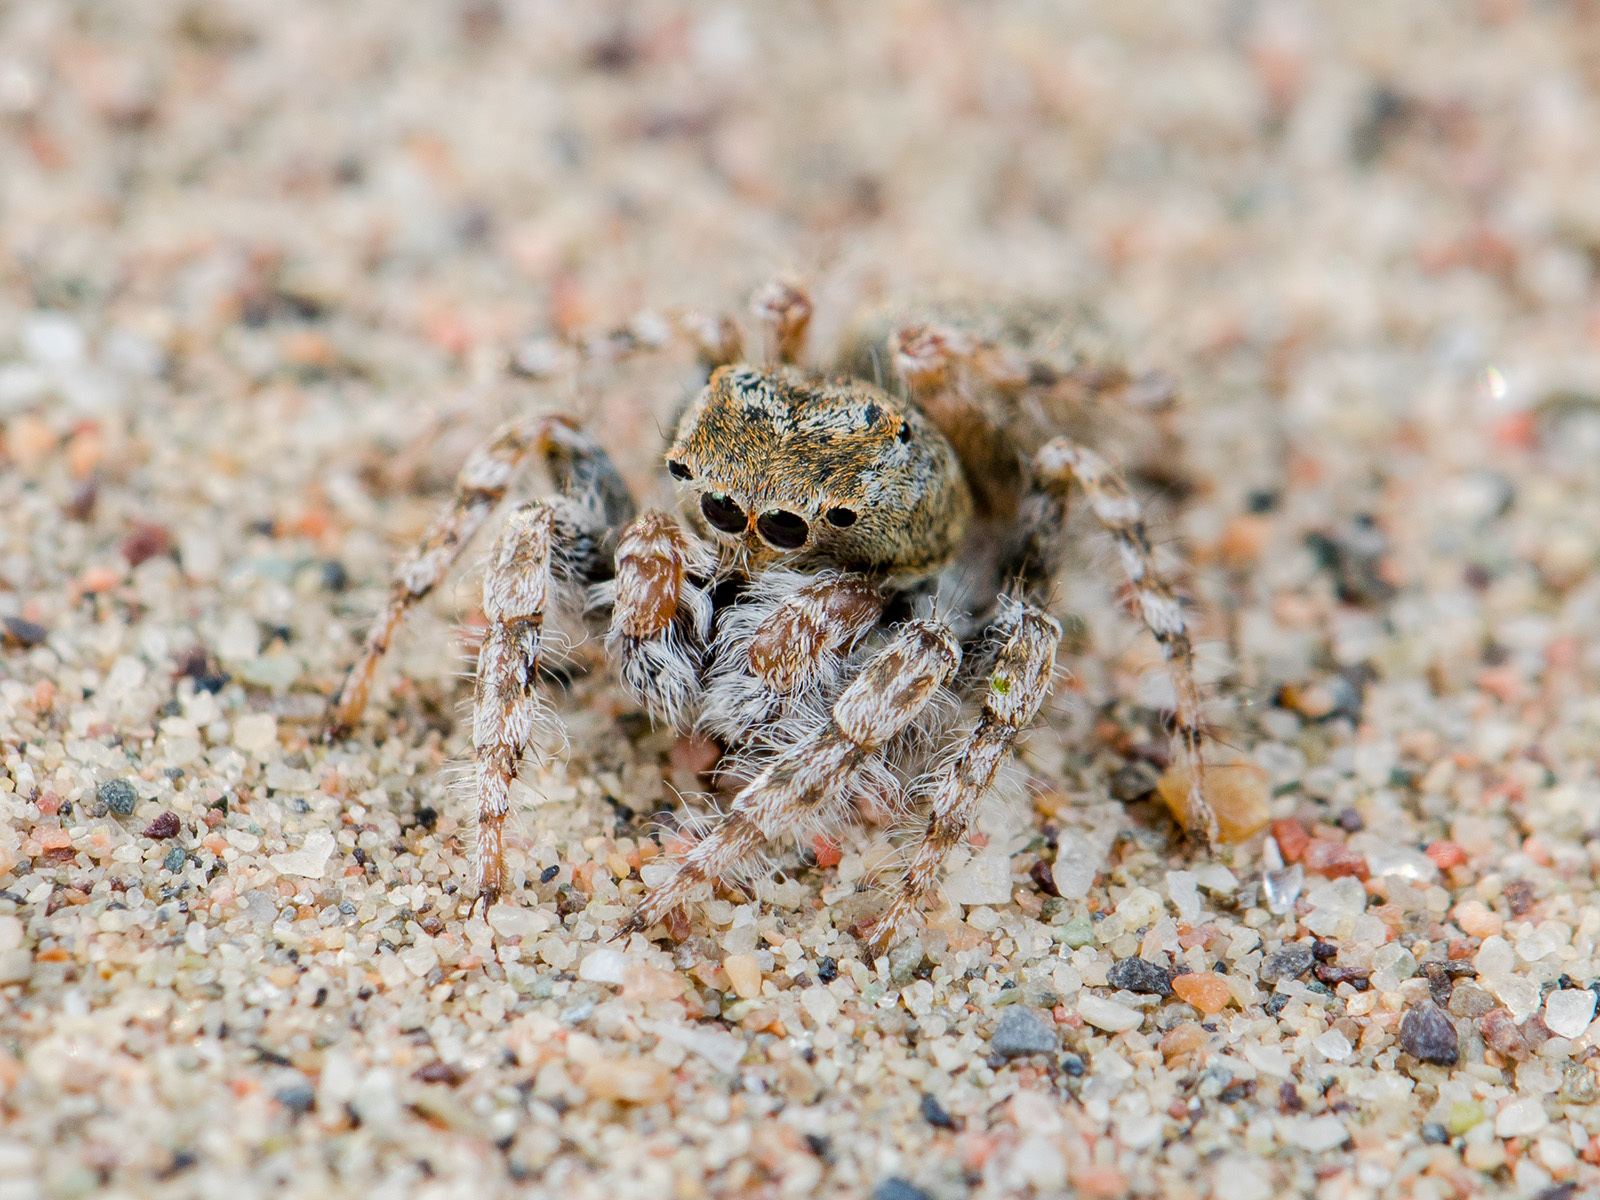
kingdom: Animalia
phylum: Arthropoda
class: Arachnida
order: Araneae
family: Salticidae
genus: Yllenus
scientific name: Yllenus uiguricus
